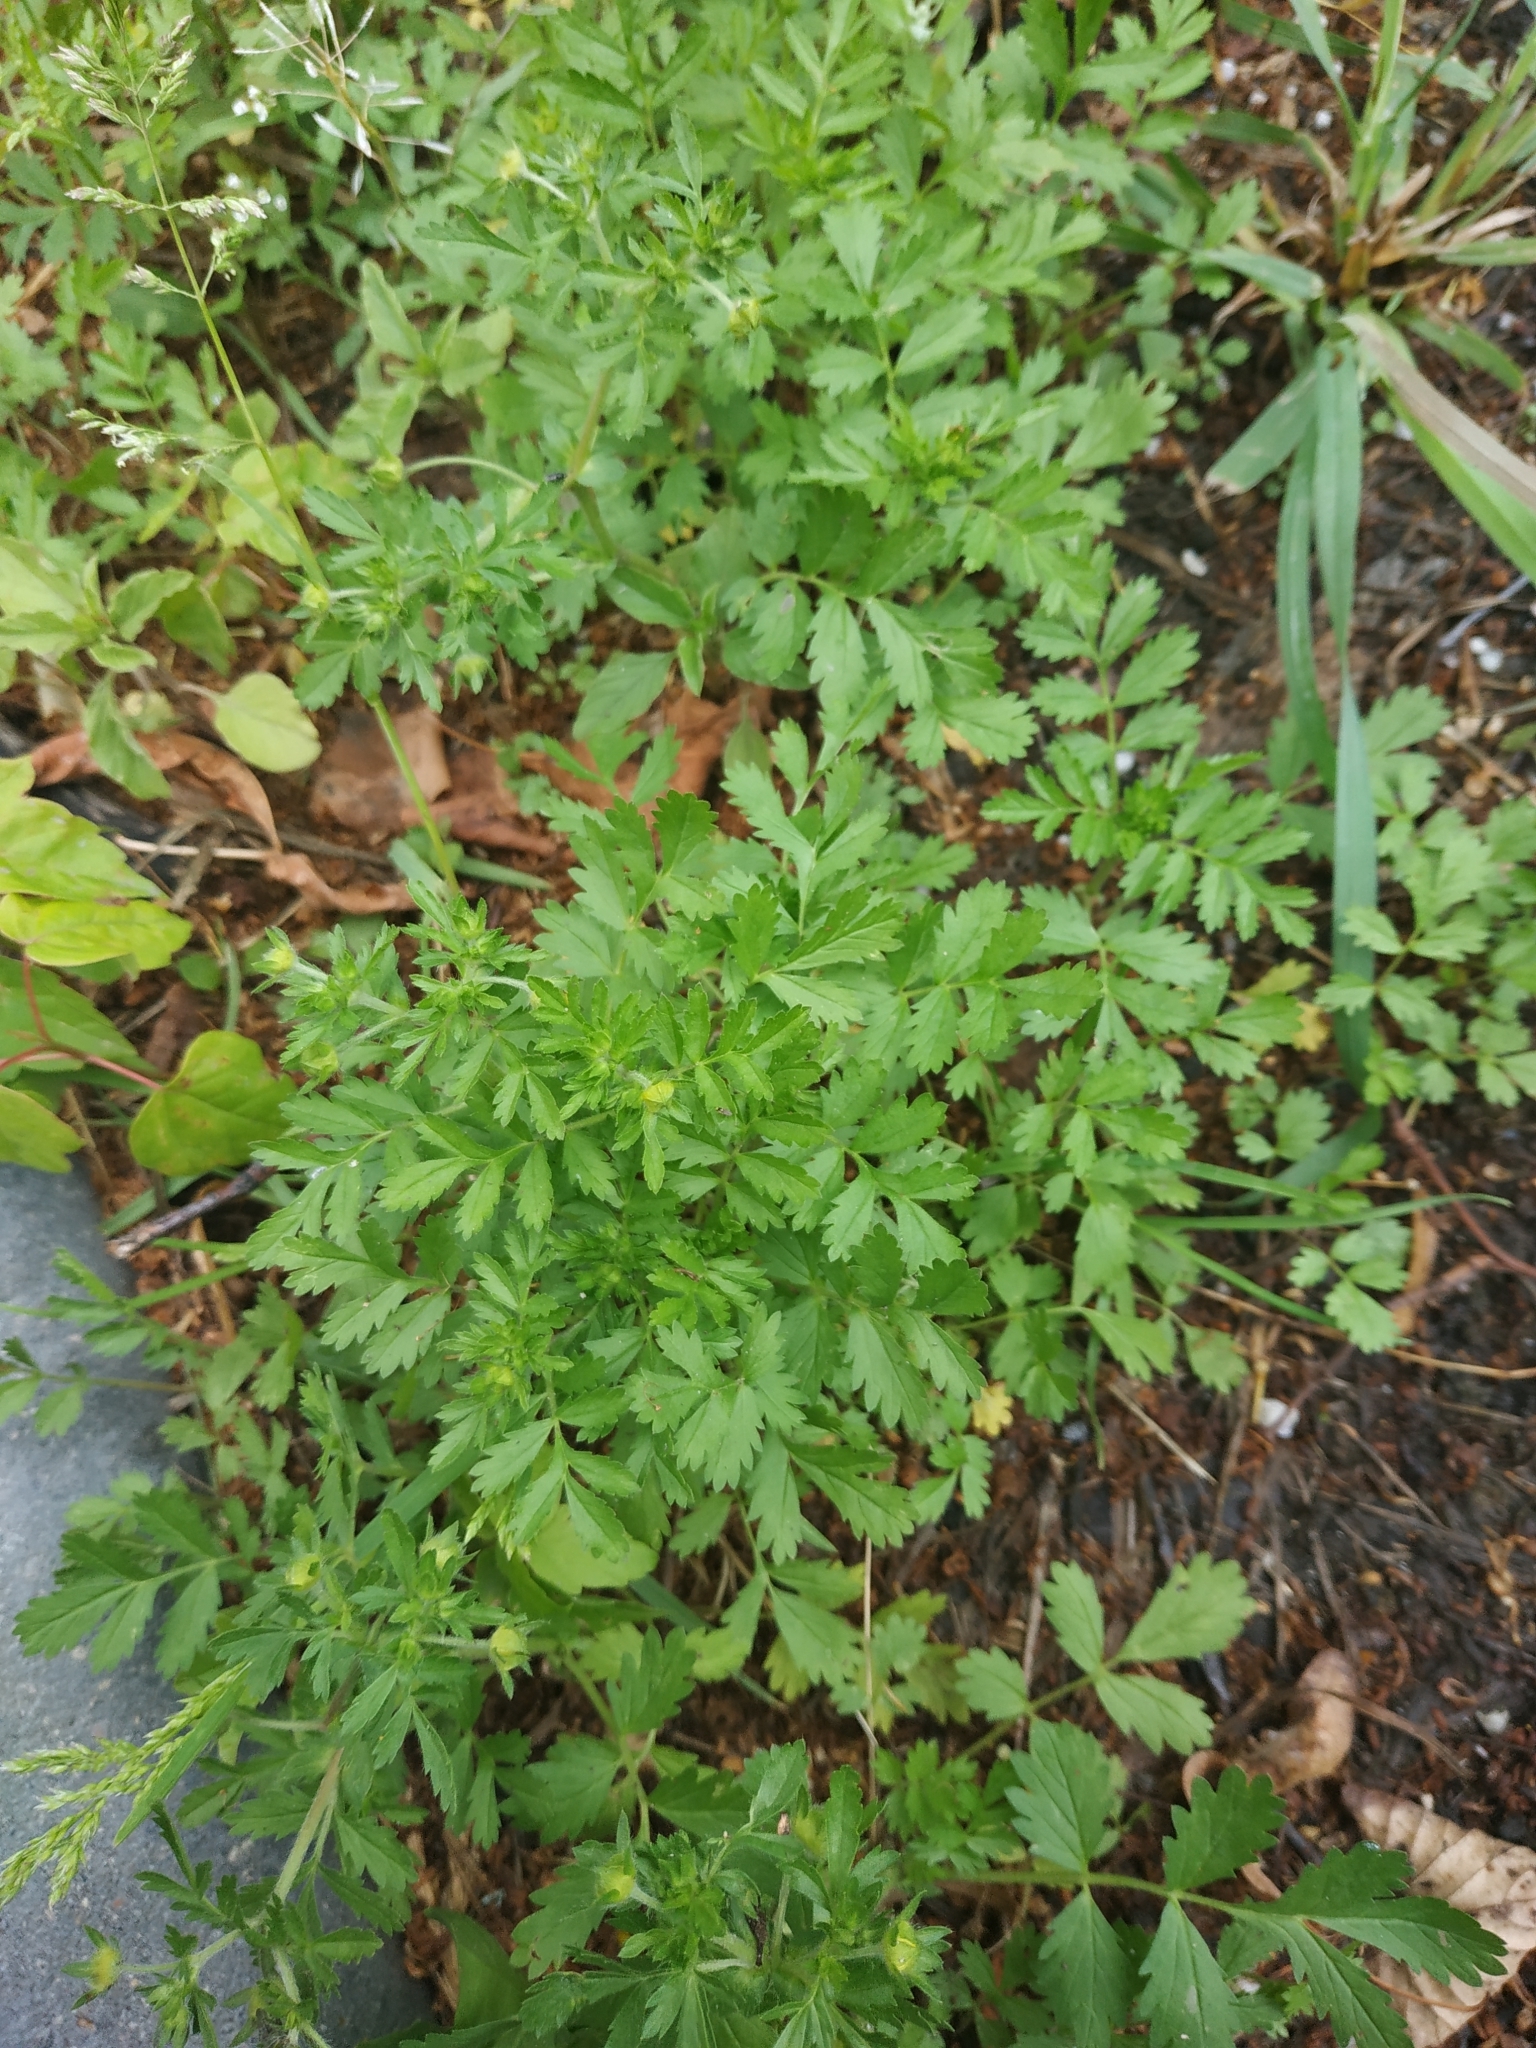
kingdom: Plantae
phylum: Tracheophyta
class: Magnoliopsida
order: Rosales
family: Rosaceae
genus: Potentilla
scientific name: Potentilla supina
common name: Prostrate cinquefoil
